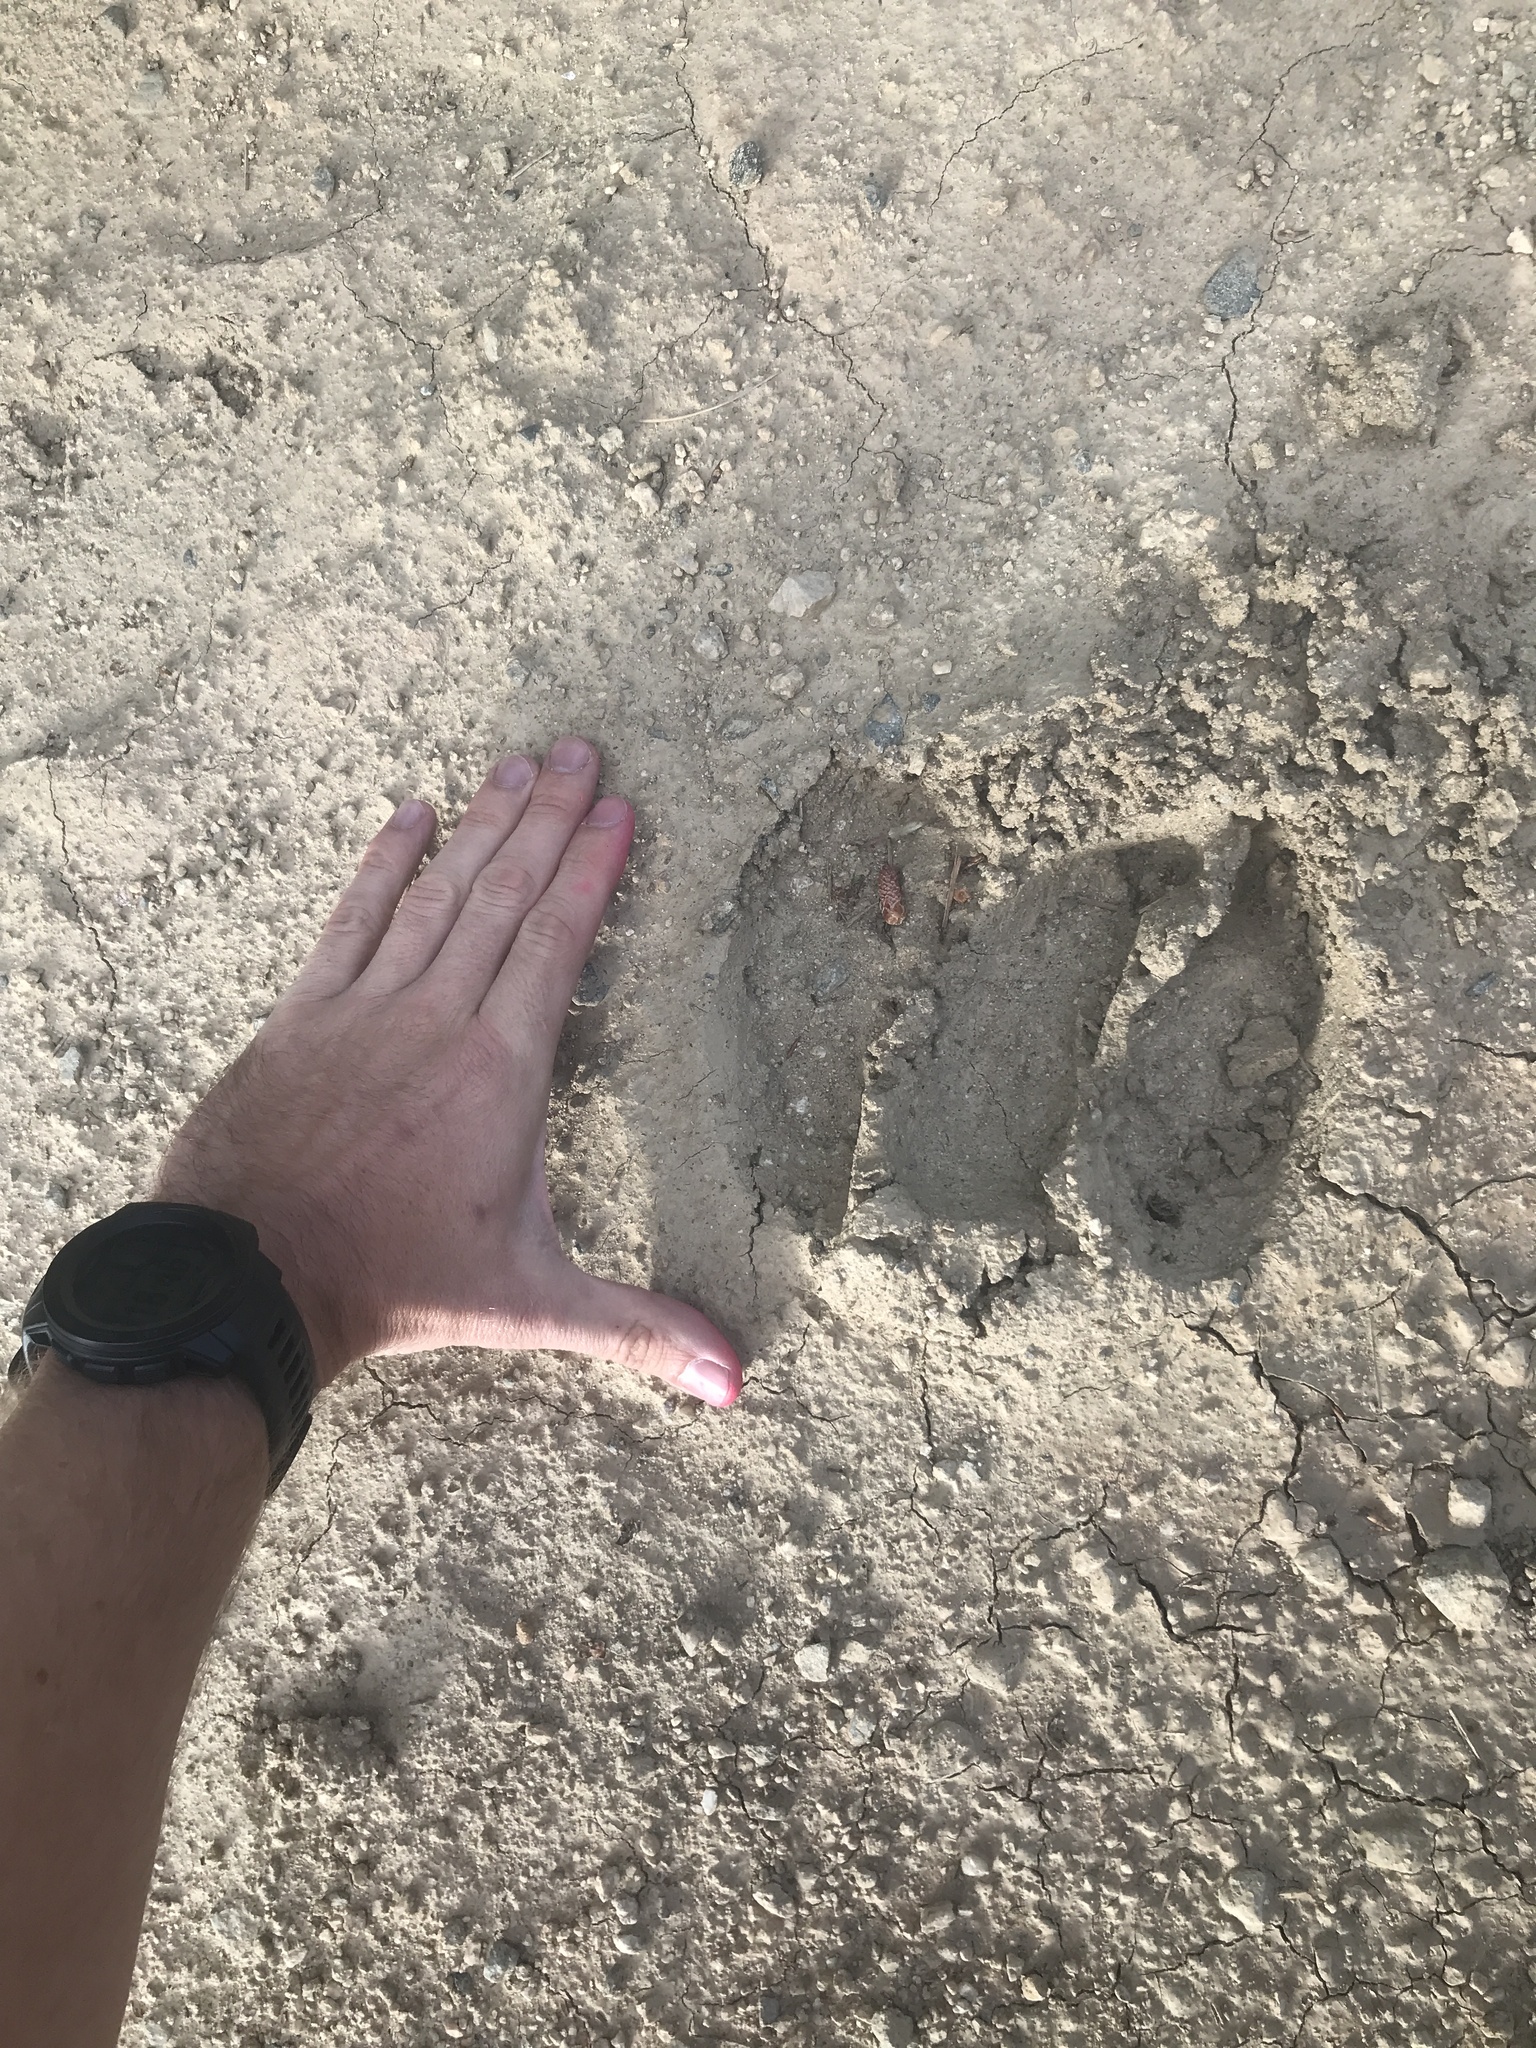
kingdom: Animalia
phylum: Chordata
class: Mammalia
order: Artiodactyla
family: Cervidae
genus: Alces
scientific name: Alces alces
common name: Moose
